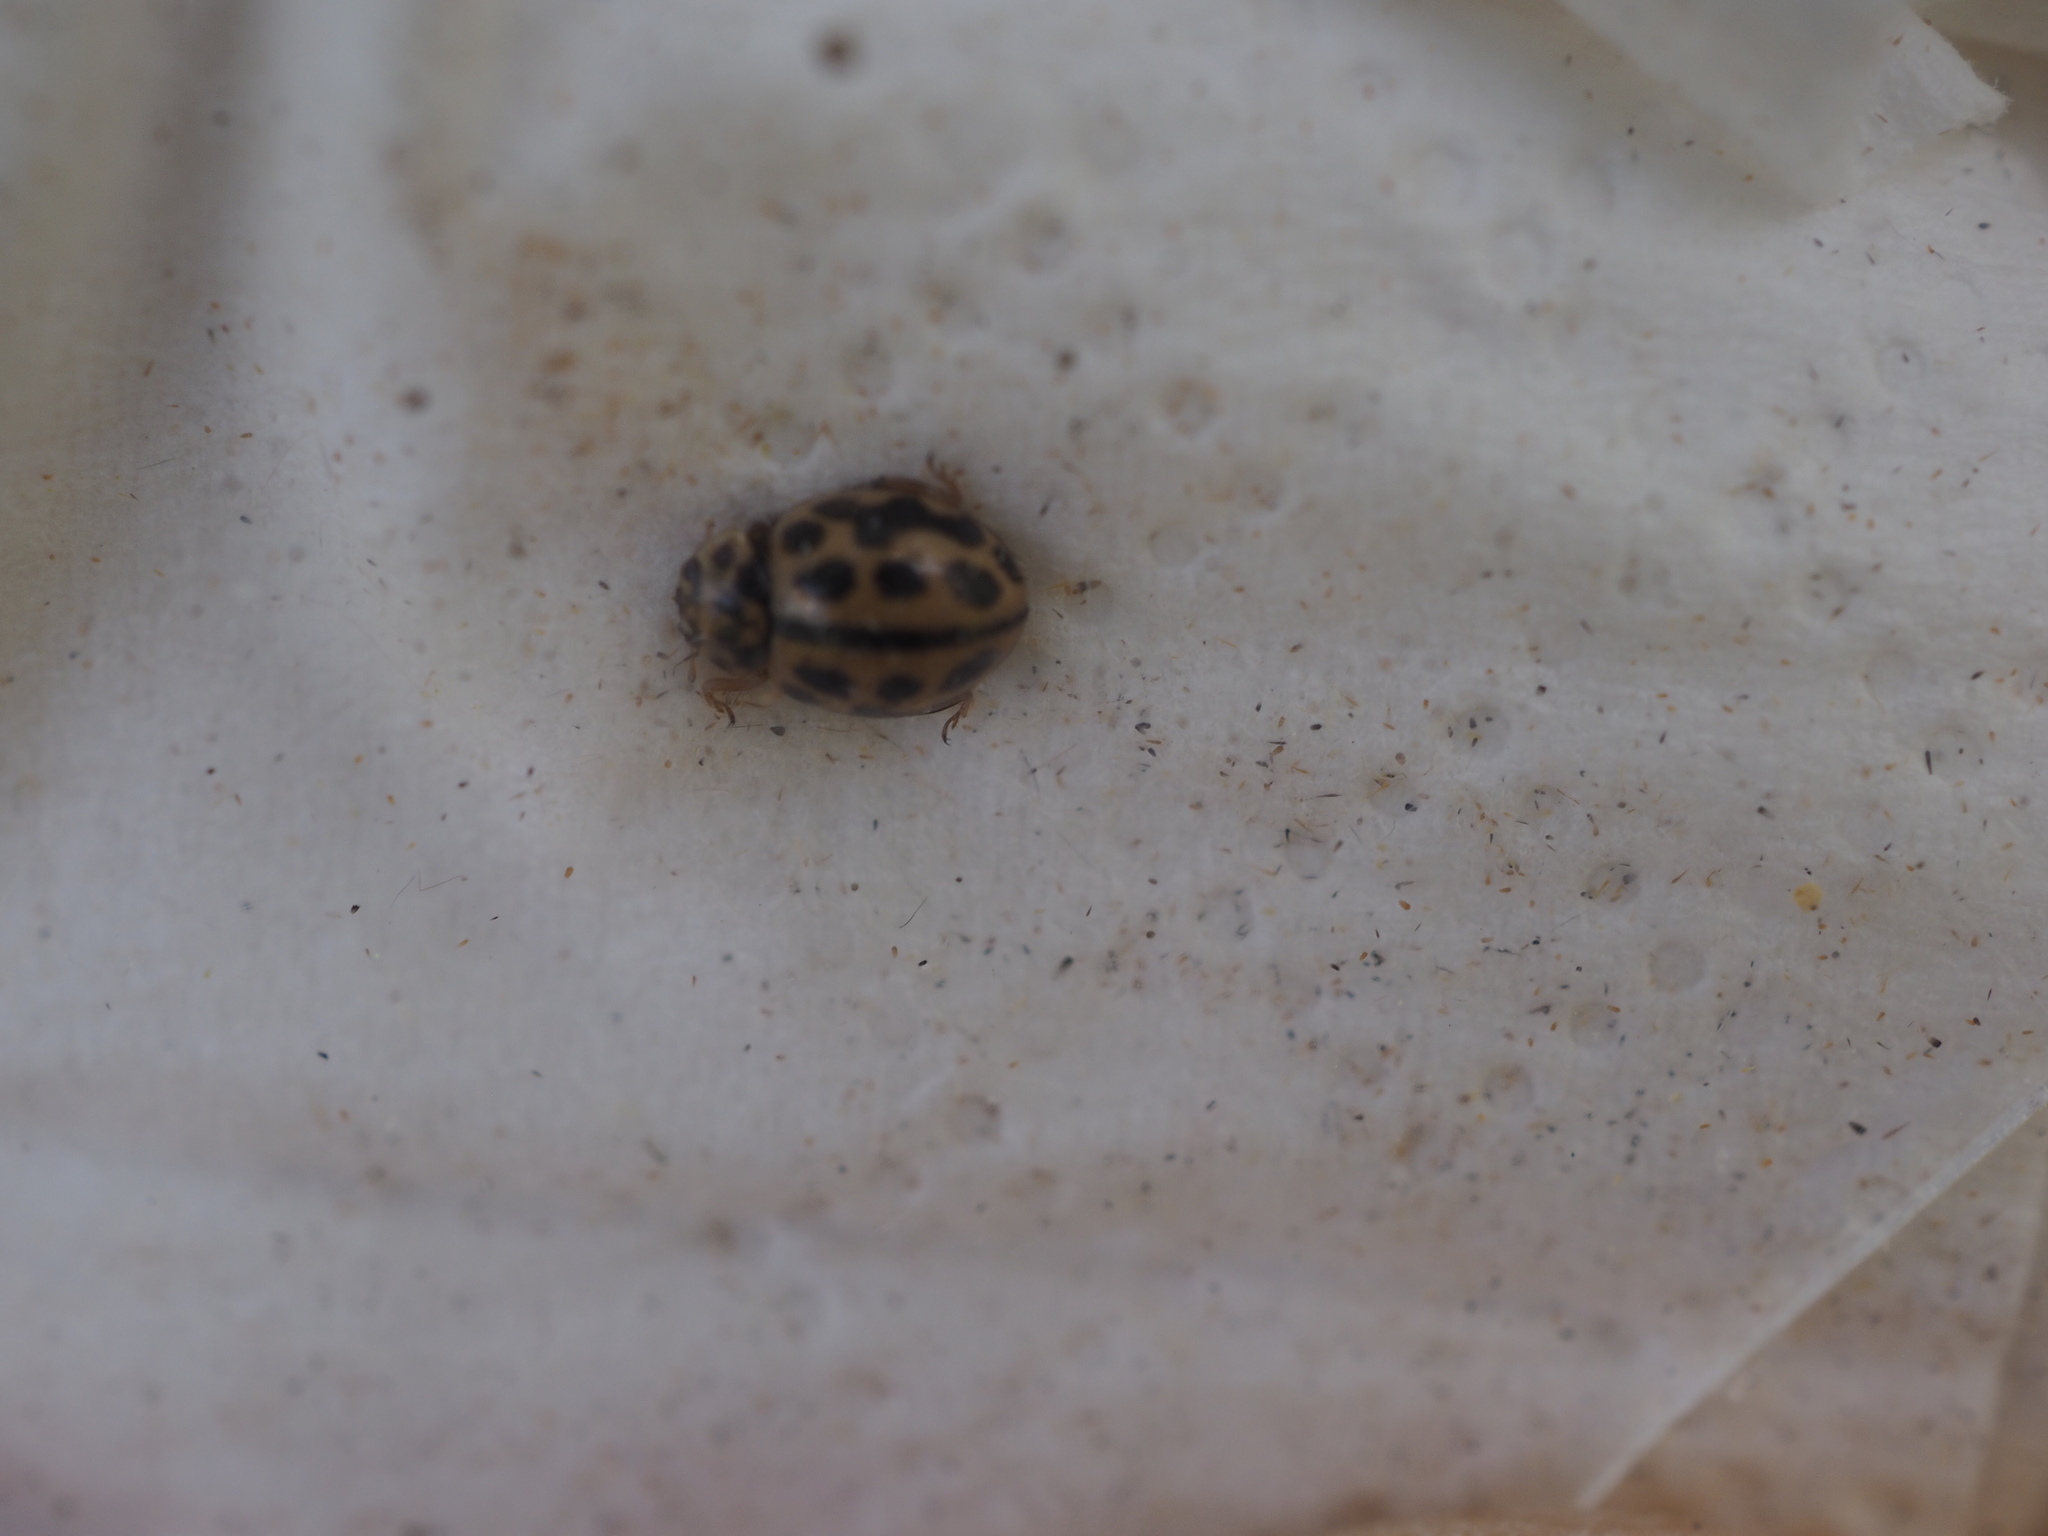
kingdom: Animalia
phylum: Arthropoda
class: Insecta
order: Coleoptera
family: Coccinellidae
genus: Tytthaspis
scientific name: Tytthaspis sedecimpunctata
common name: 16-spot ladybird
